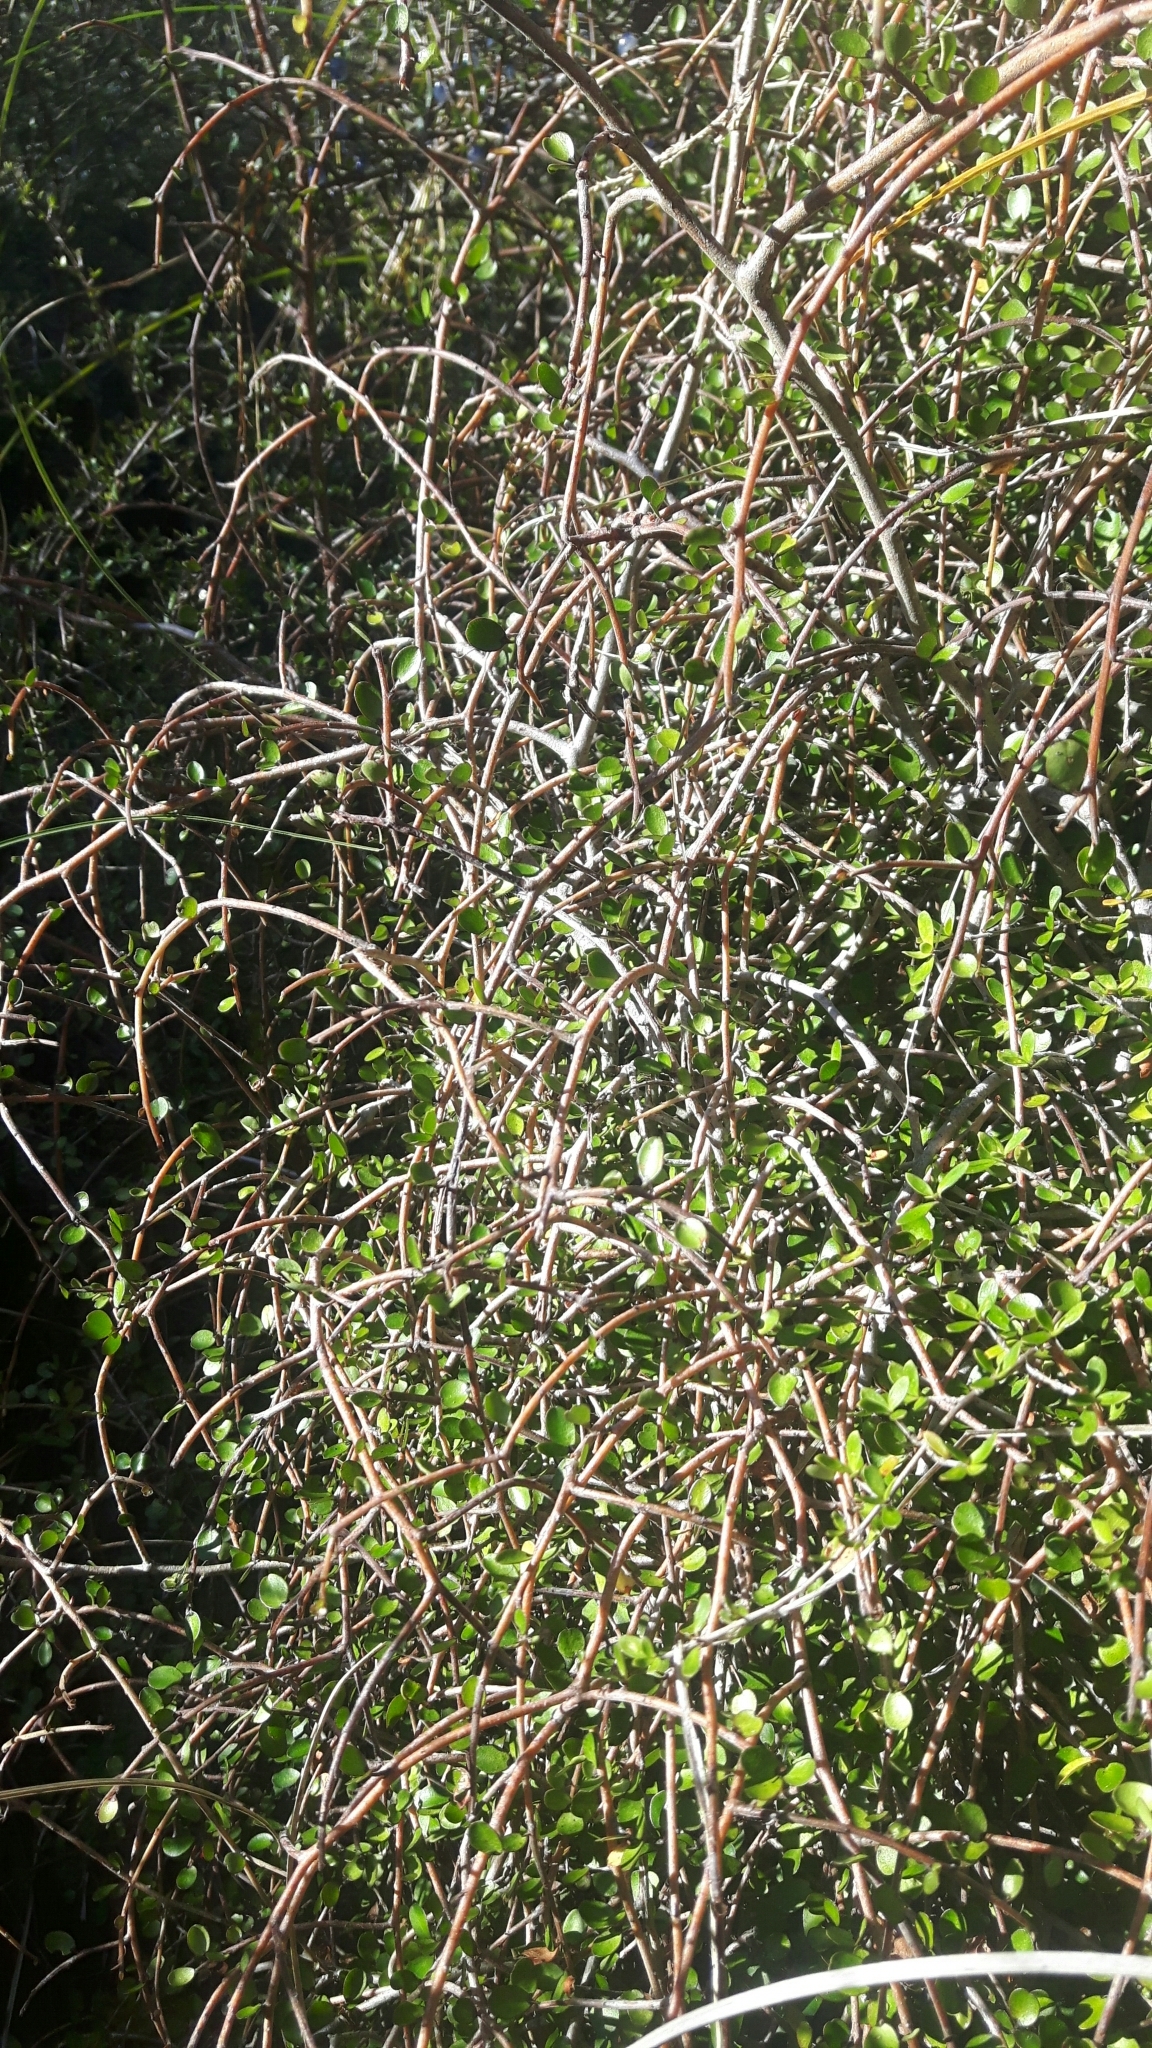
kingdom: Plantae
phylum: Tracheophyta
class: Magnoliopsida
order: Ericales
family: Primulaceae
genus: Myrsine
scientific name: Myrsine divaricata
